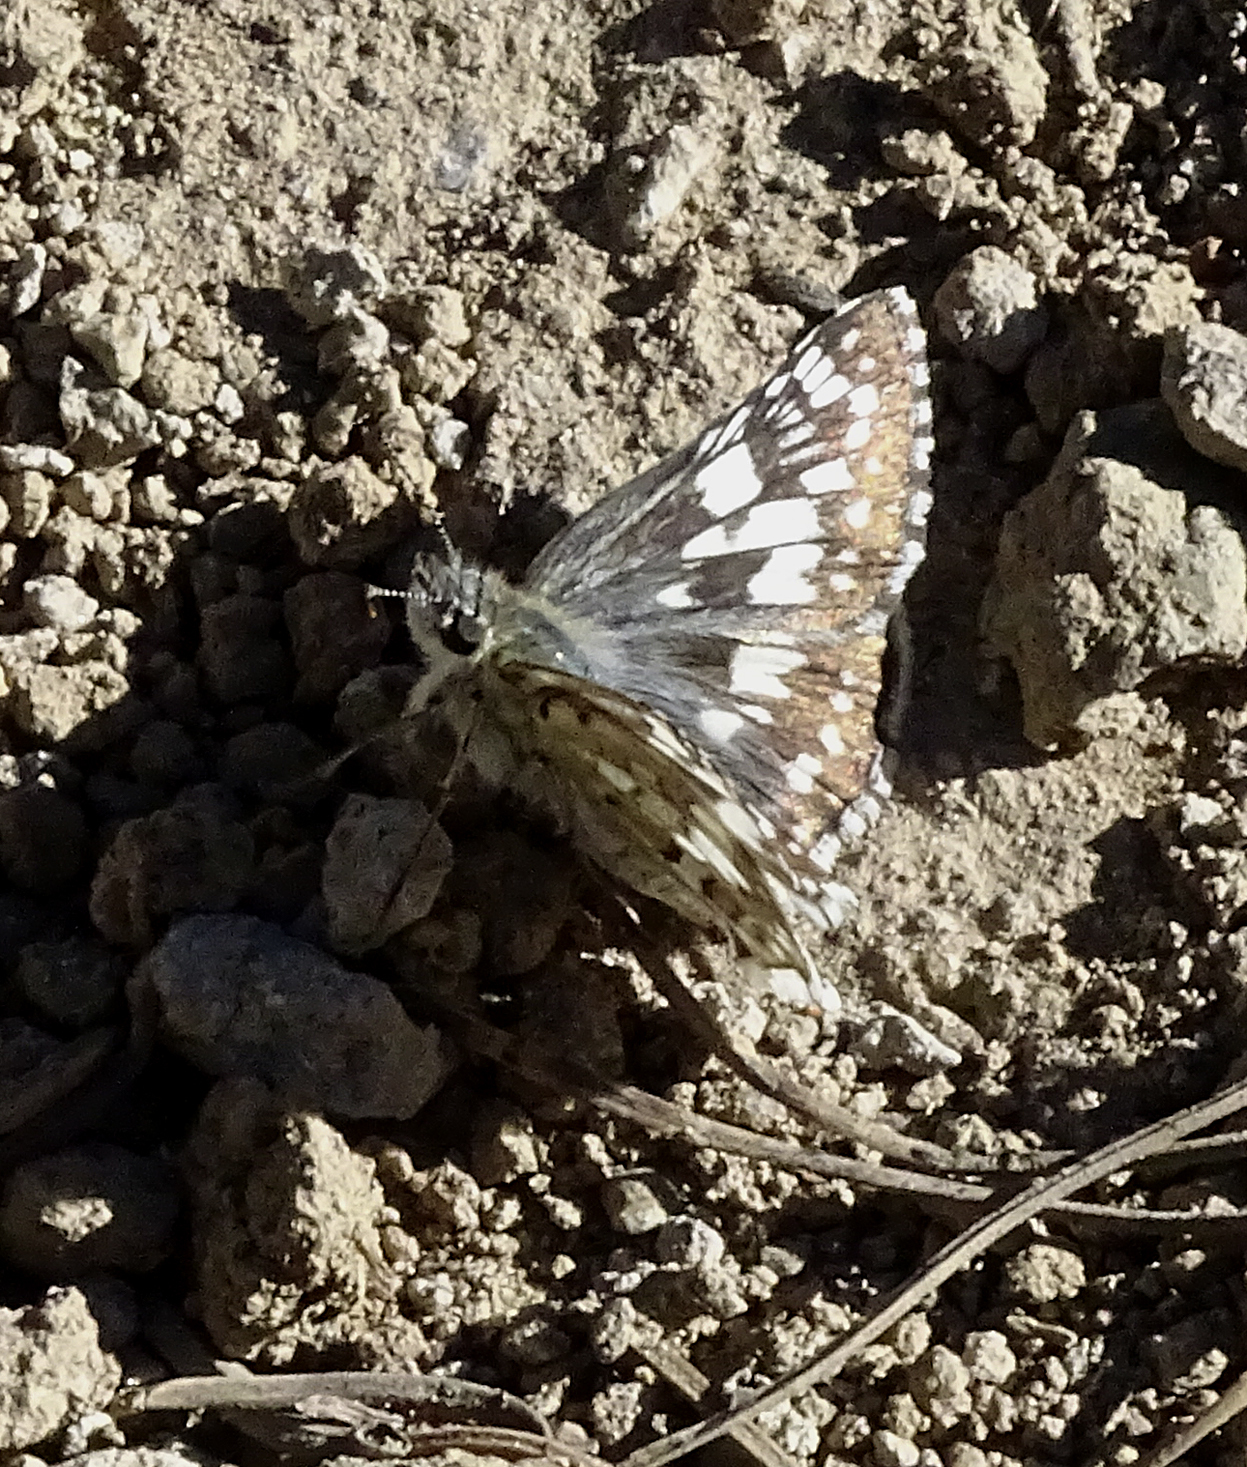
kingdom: Animalia
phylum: Arthropoda
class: Insecta
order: Lepidoptera
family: Hesperiidae
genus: Burnsius
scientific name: Burnsius communis
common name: Common checkered-skipper
